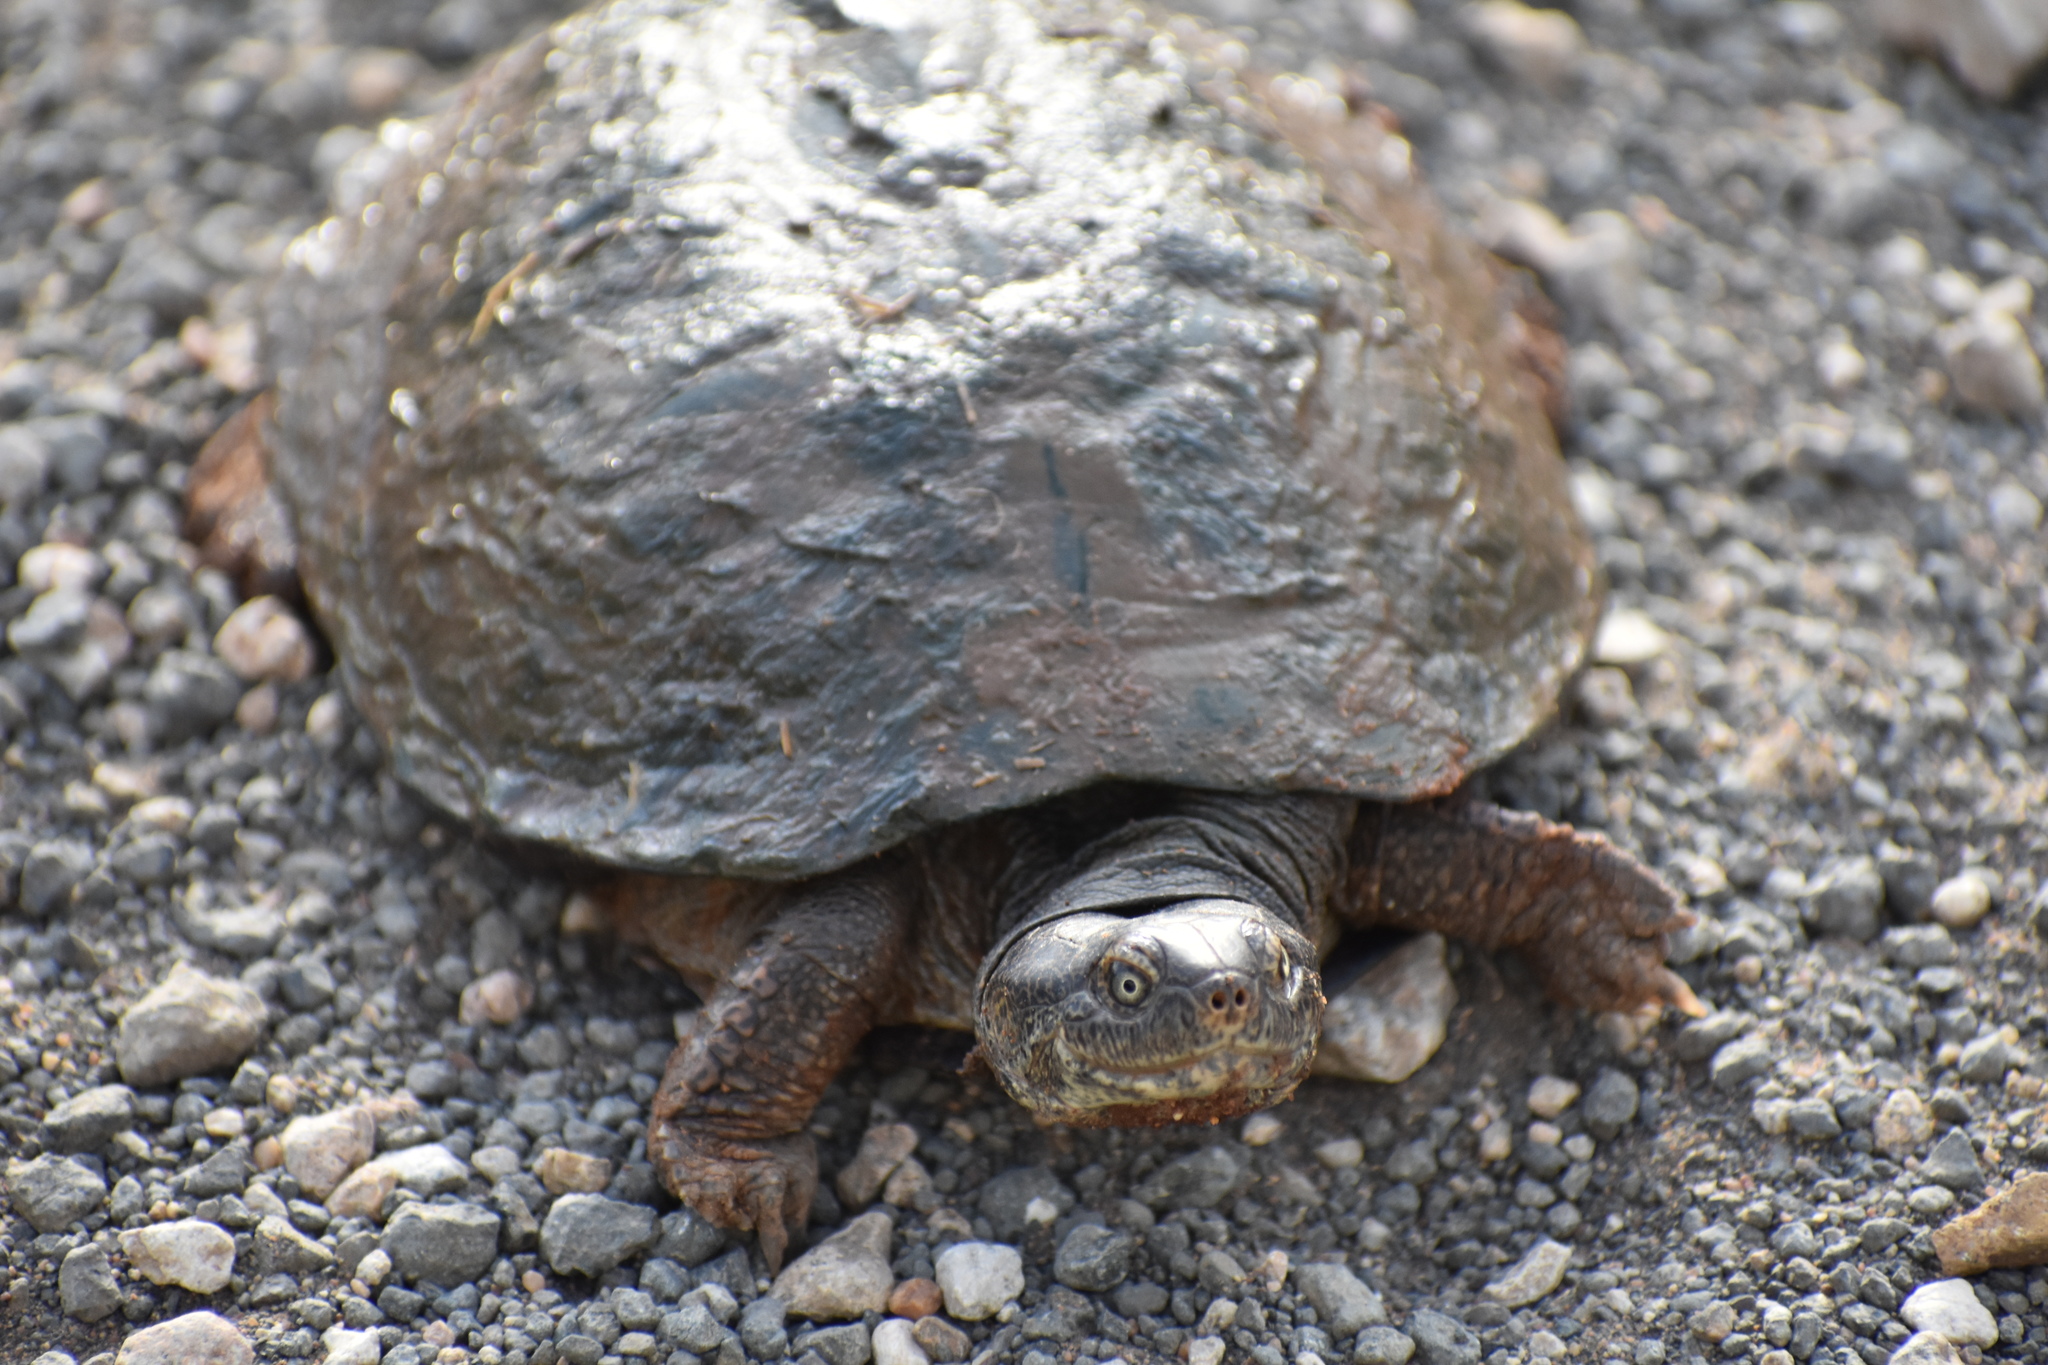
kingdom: Animalia
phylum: Chordata
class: Testudines
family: Pelomedusidae
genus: Pelusios
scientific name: Pelusios sinuatus
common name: Serrated hinged terrapin
